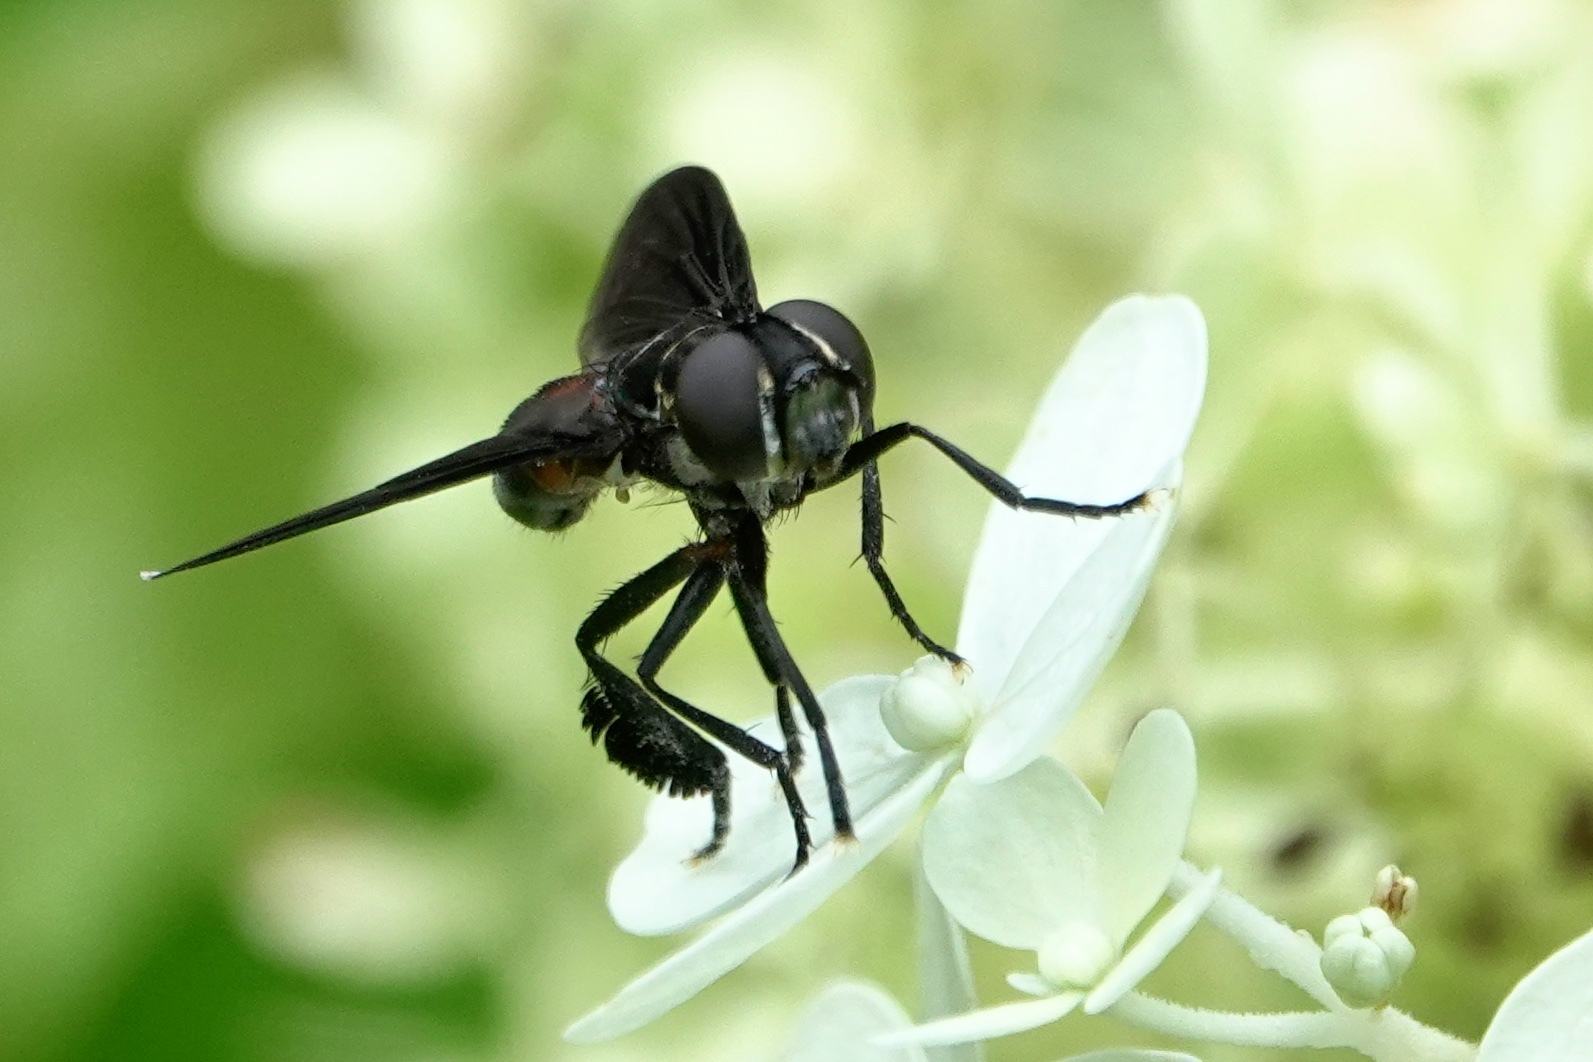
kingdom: Animalia
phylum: Arthropoda
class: Insecta
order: Diptera
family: Tachinidae
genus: Trichopoda
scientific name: Trichopoda lanipes
